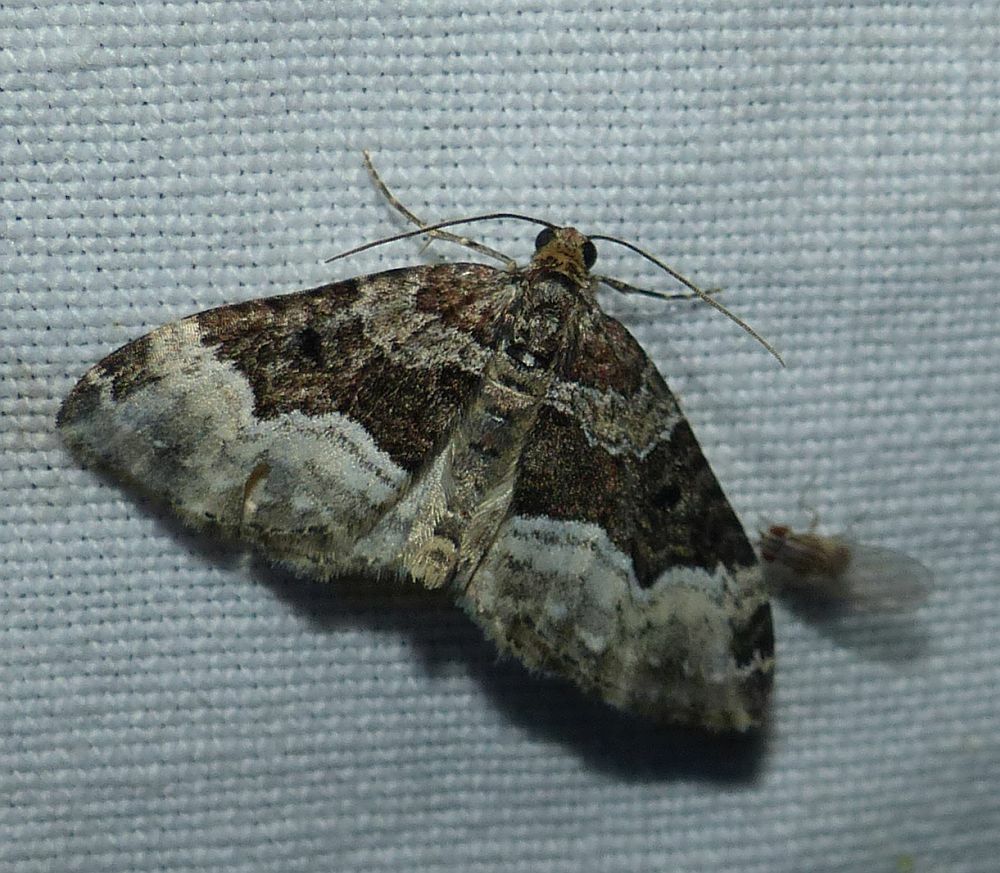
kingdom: Animalia
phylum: Arthropoda
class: Insecta
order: Lepidoptera
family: Geometridae
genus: Euphyia
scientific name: Euphyia intermediata
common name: Sharp-angled carpet
